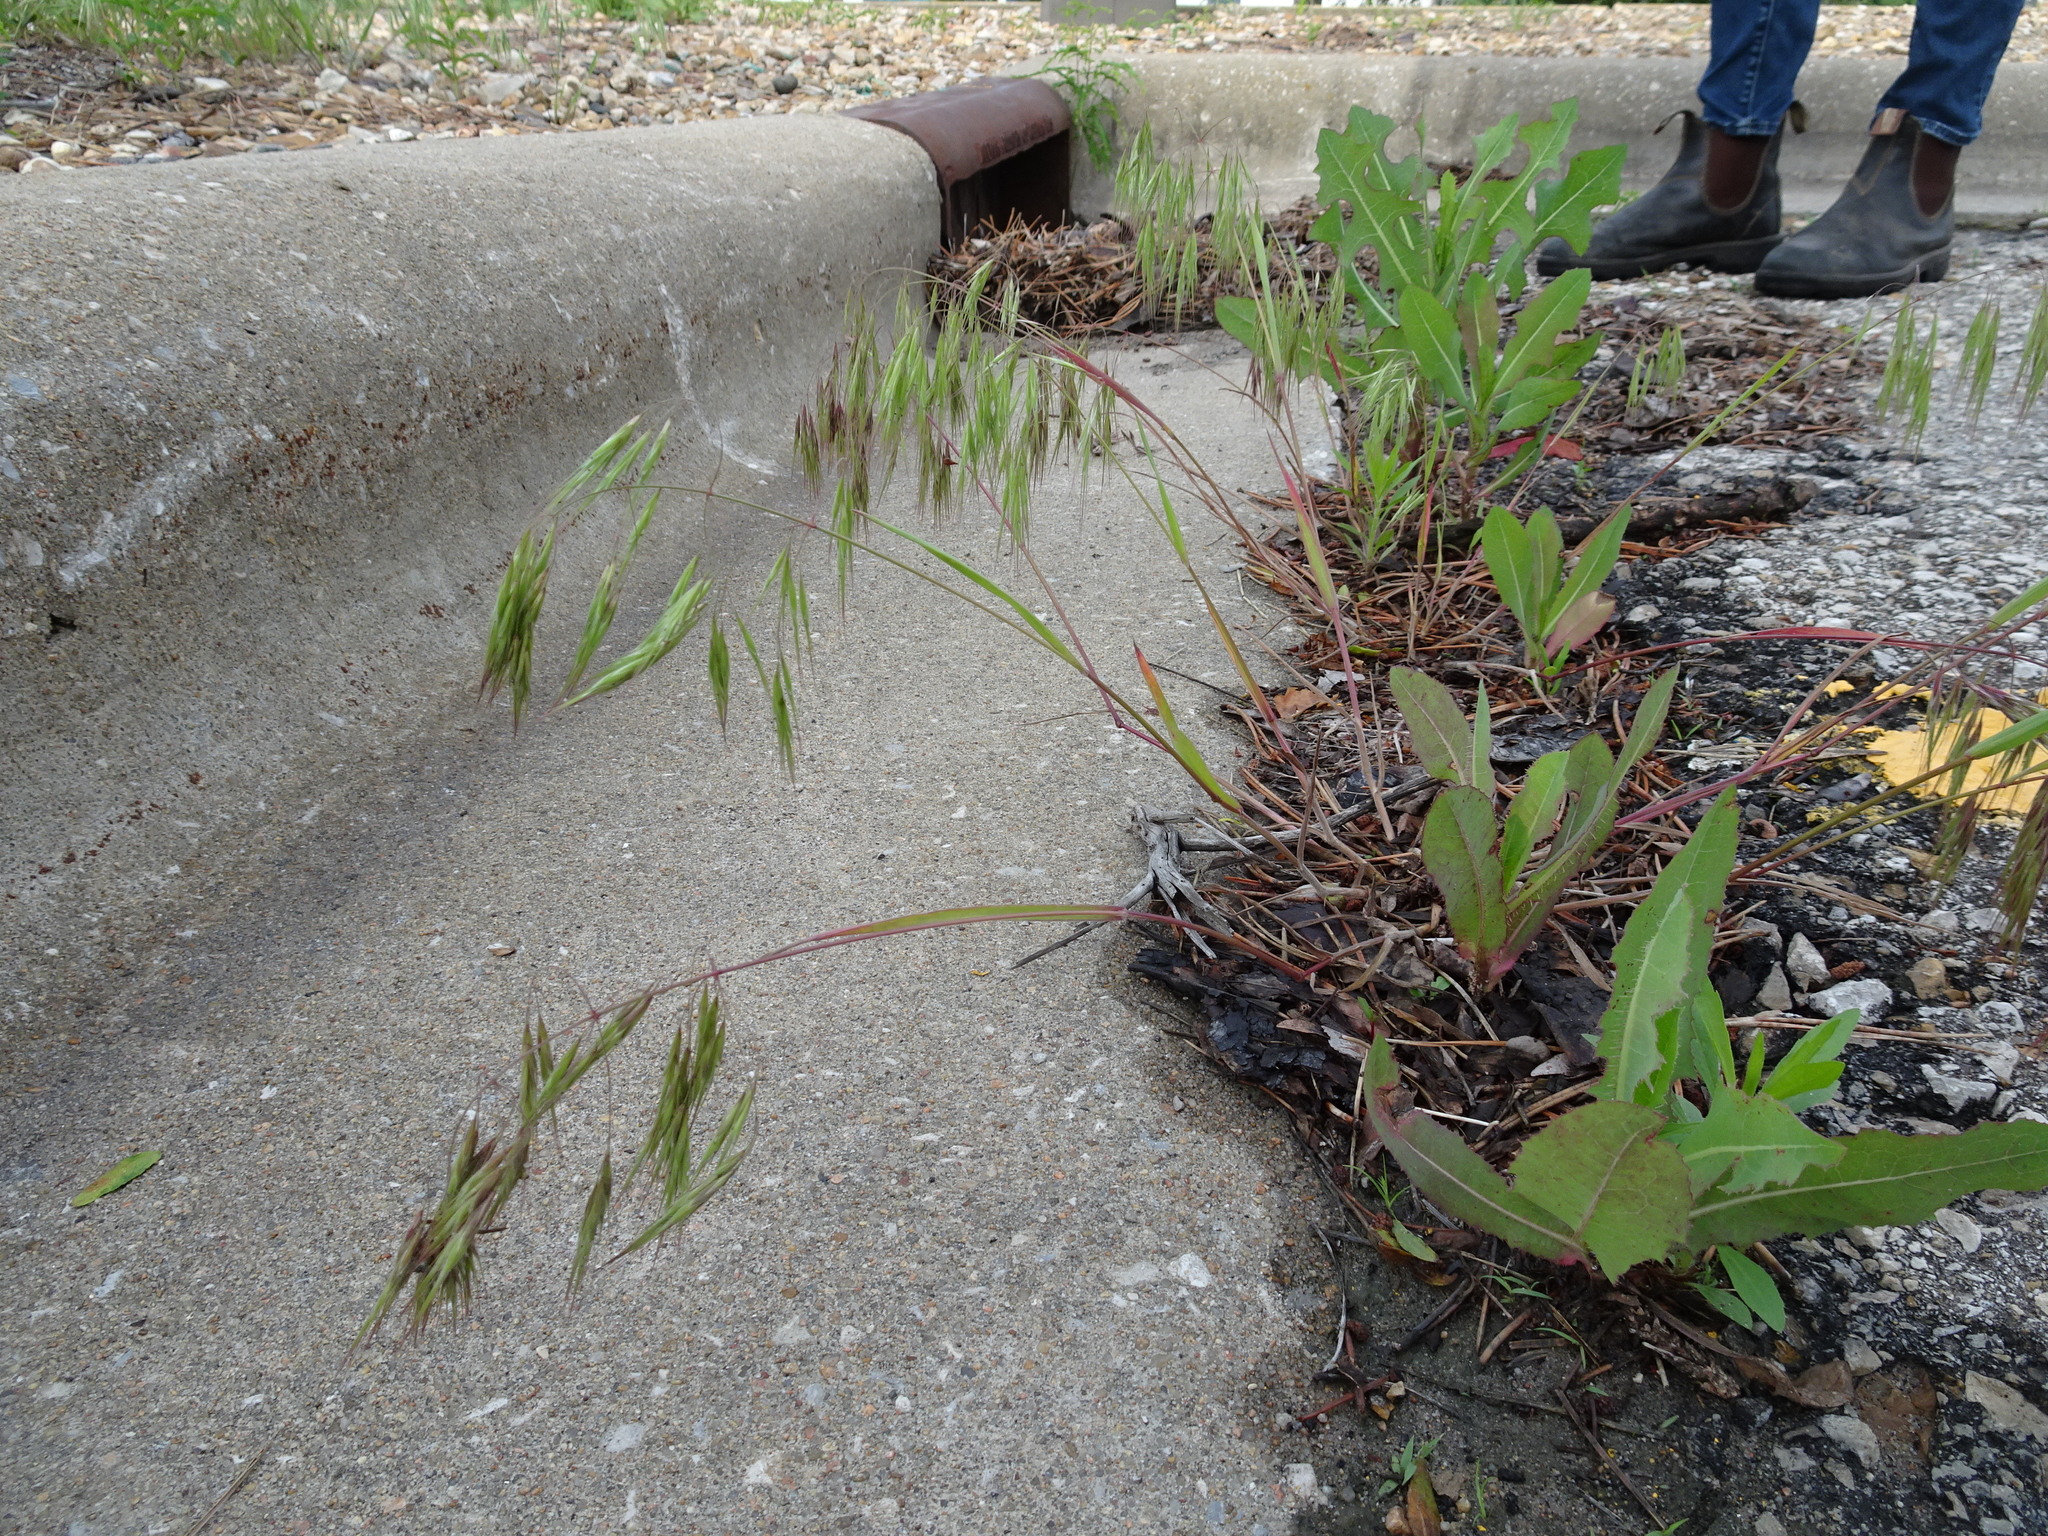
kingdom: Plantae
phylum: Tracheophyta
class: Liliopsida
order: Poales
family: Poaceae
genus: Bromus
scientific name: Bromus tectorum
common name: Cheatgrass
